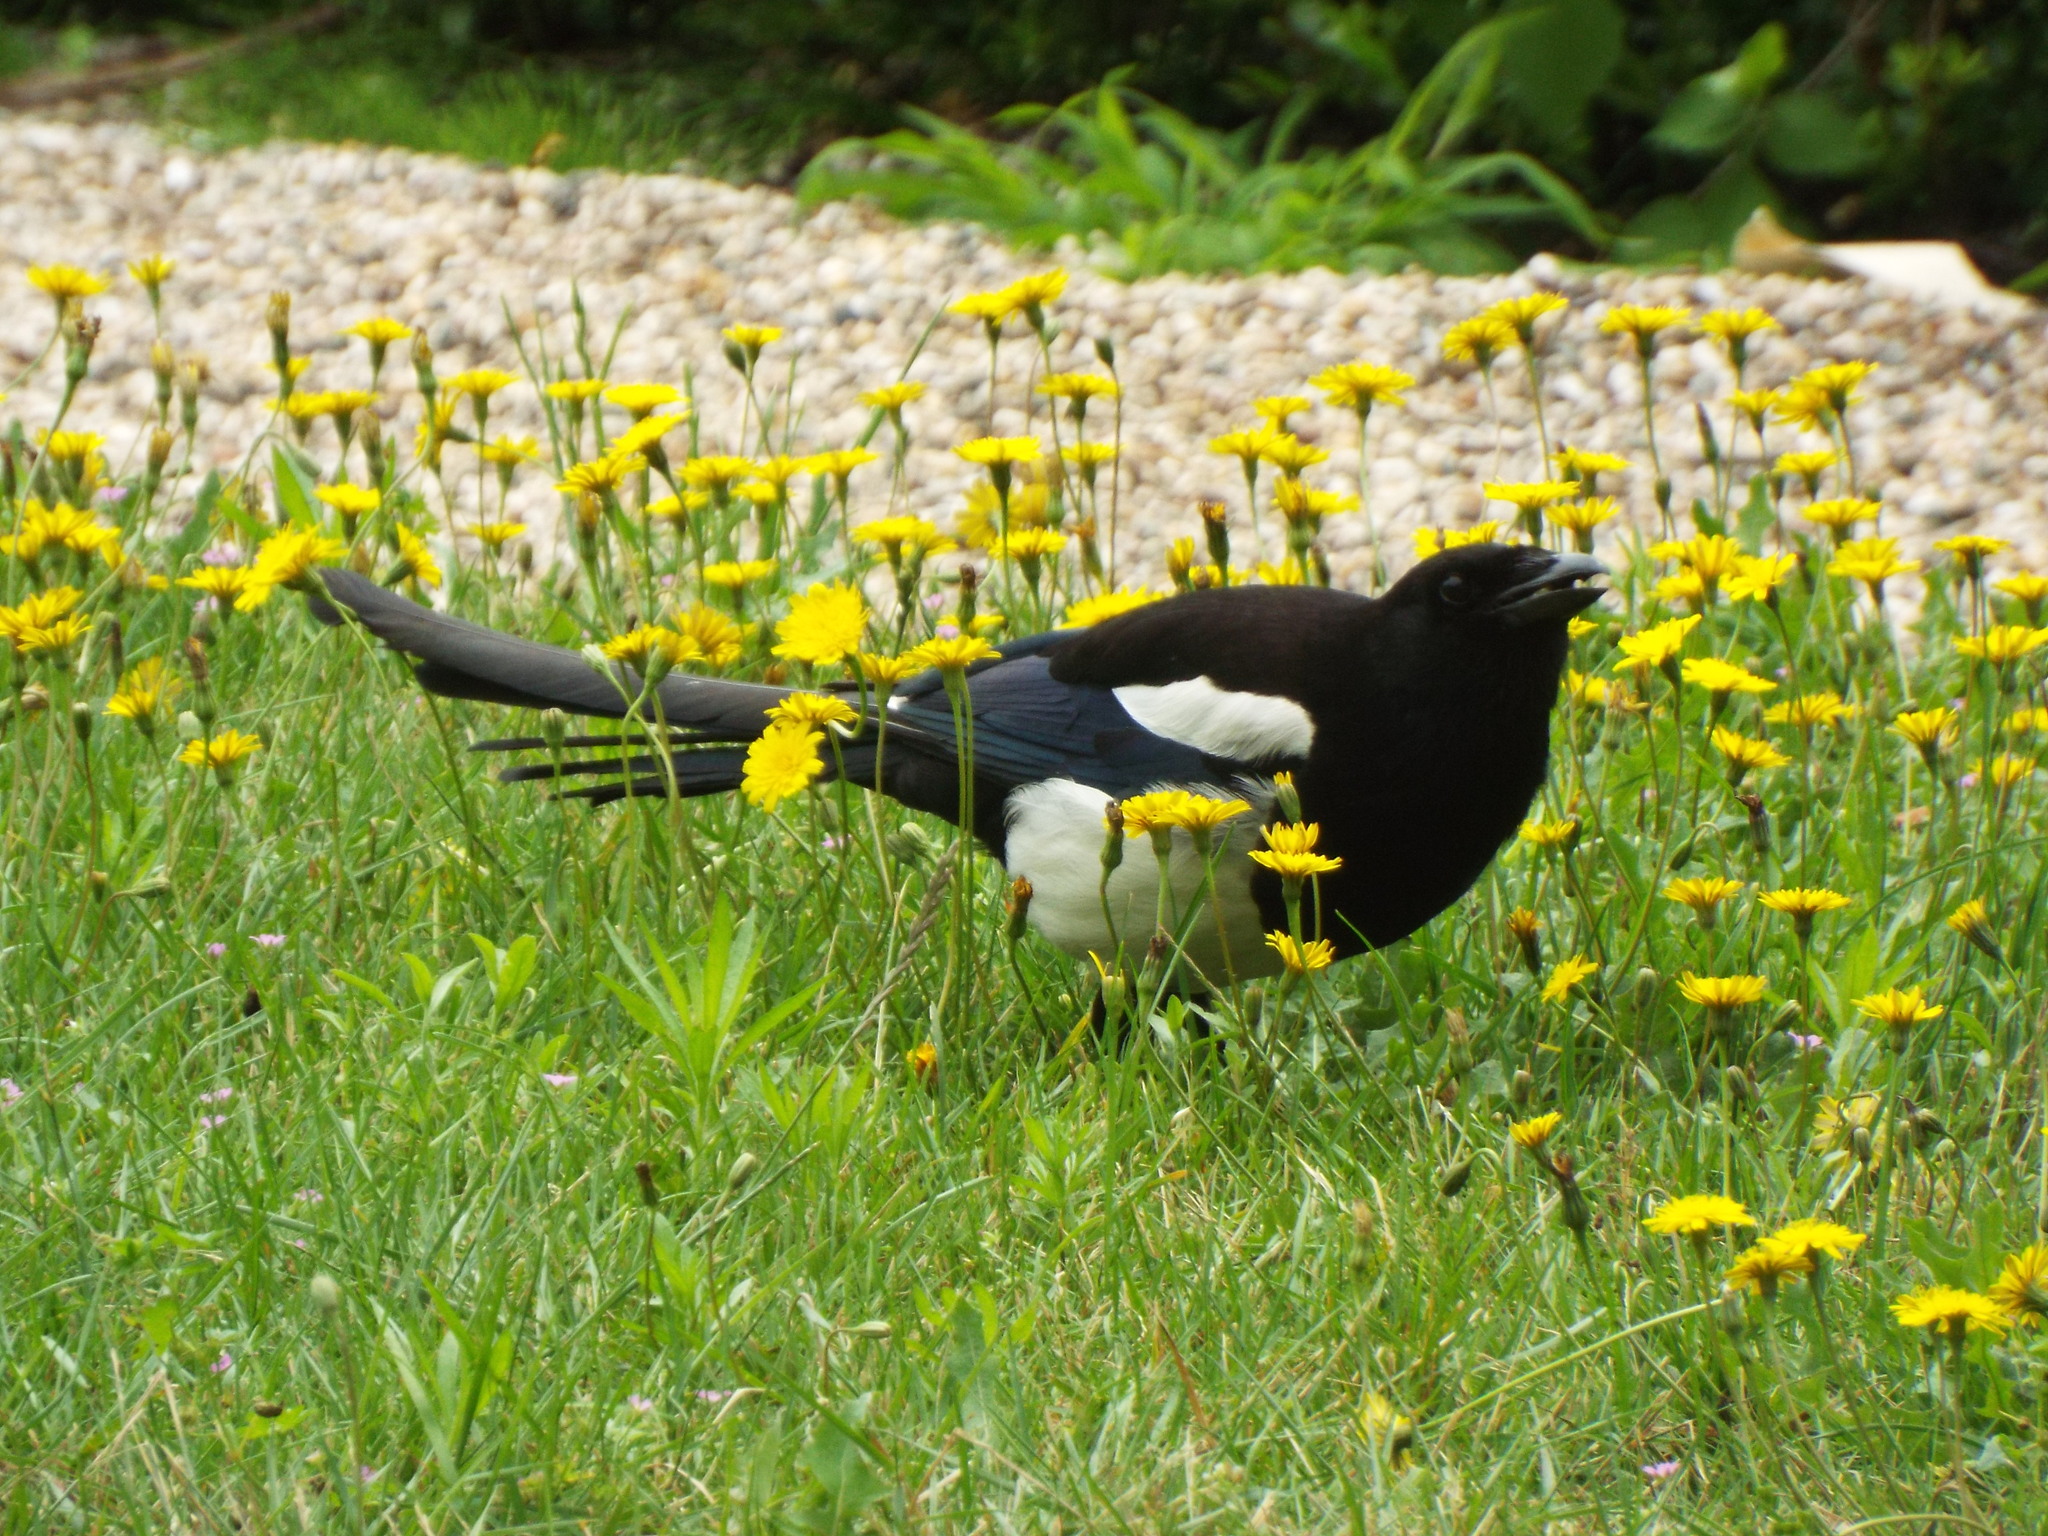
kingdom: Animalia
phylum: Chordata
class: Aves
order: Passeriformes
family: Corvidae
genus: Pica
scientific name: Pica pica
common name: Eurasian magpie
